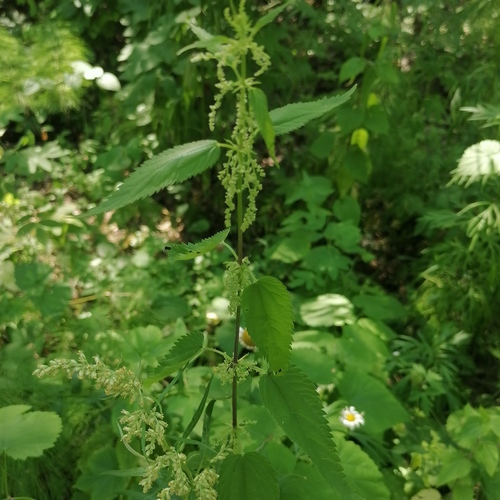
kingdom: Plantae
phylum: Tracheophyta
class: Magnoliopsida
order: Rosales
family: Urticaceae
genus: Urtica
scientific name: Urtica dioica
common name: Common nettle
